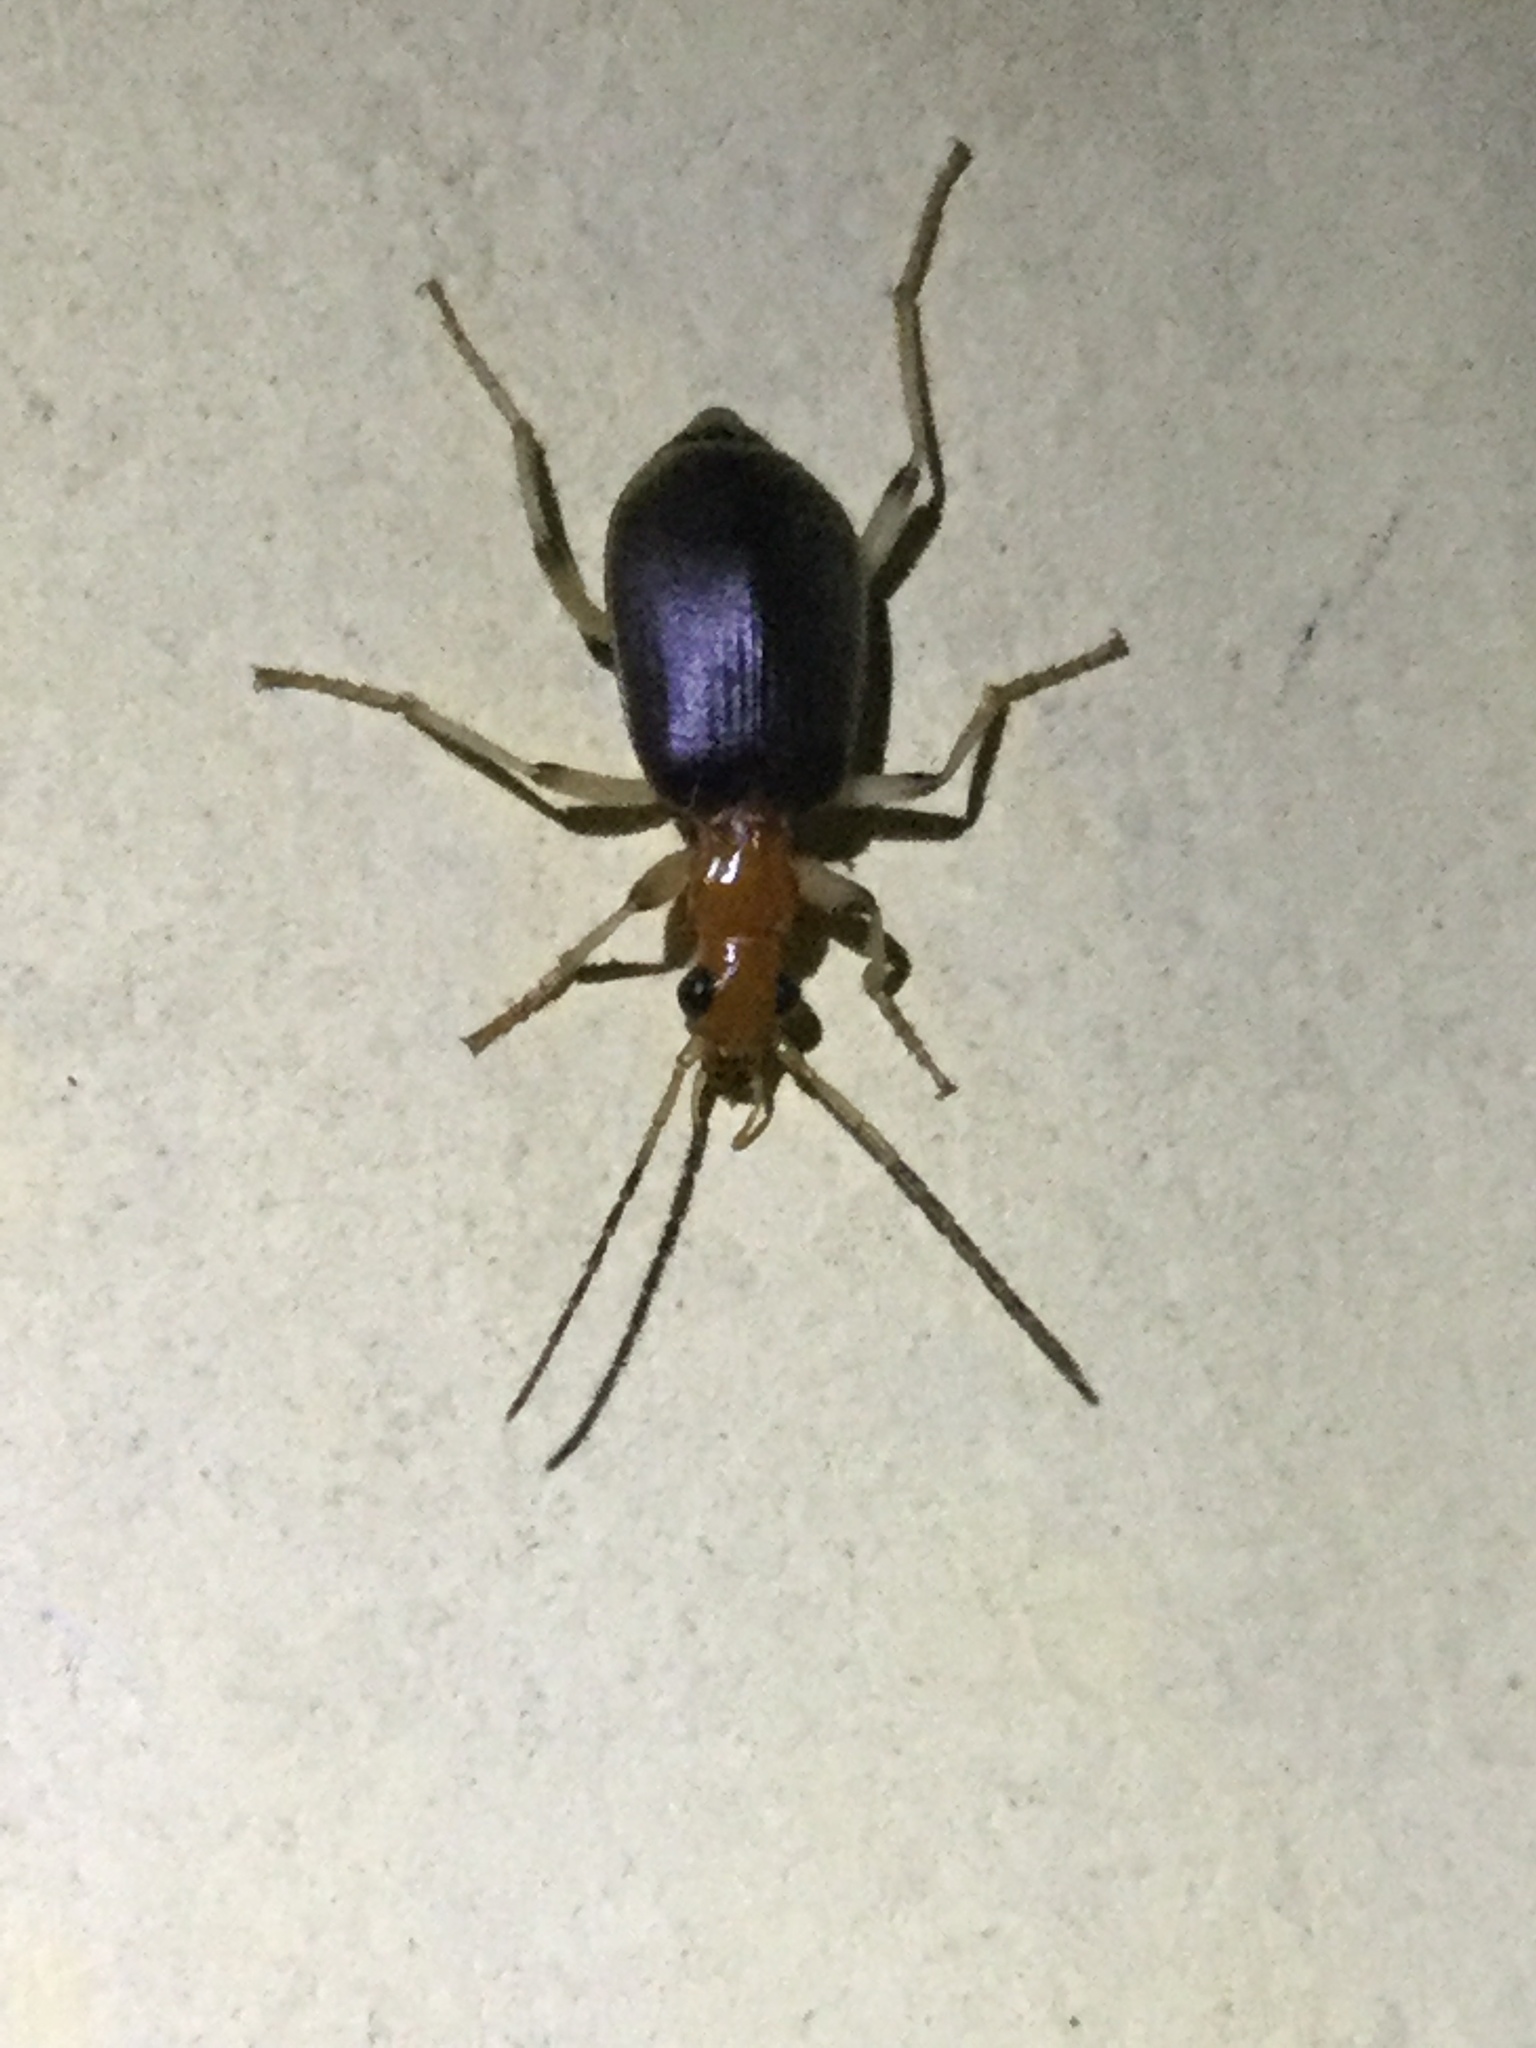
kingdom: Animalia
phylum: Arthropoda
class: Insecta
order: Coleoptera
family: Carabidae
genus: Brachinus
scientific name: Brachinus adustipennis
